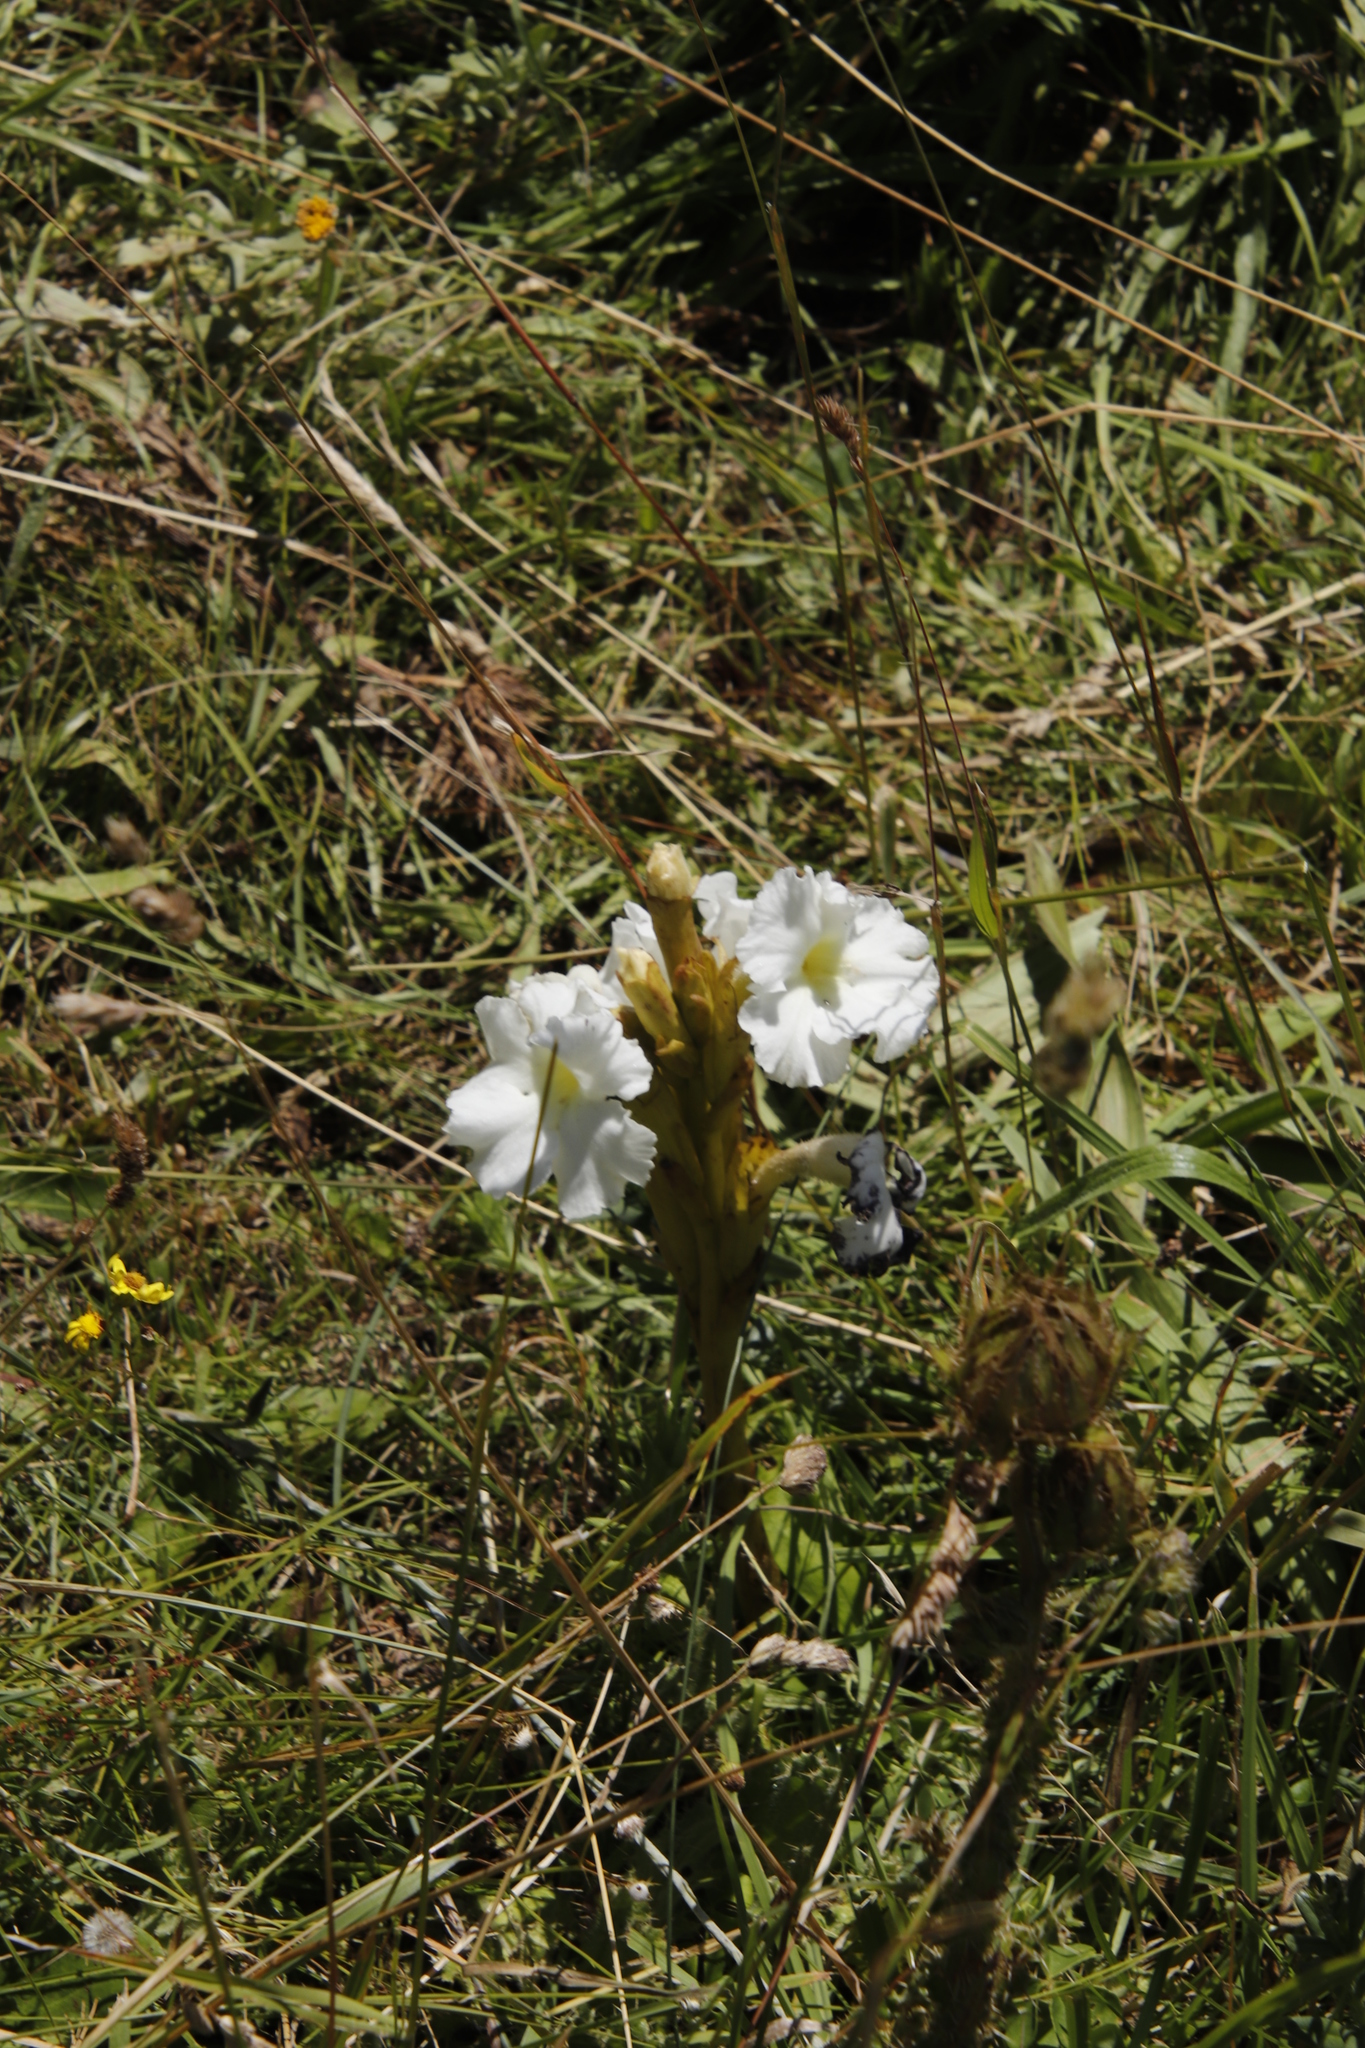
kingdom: Plantae
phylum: Tracheophyta
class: Magnoliopsida
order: Lamiales
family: Orobanchaceae
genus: Harveya
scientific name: Harveya speciosa
